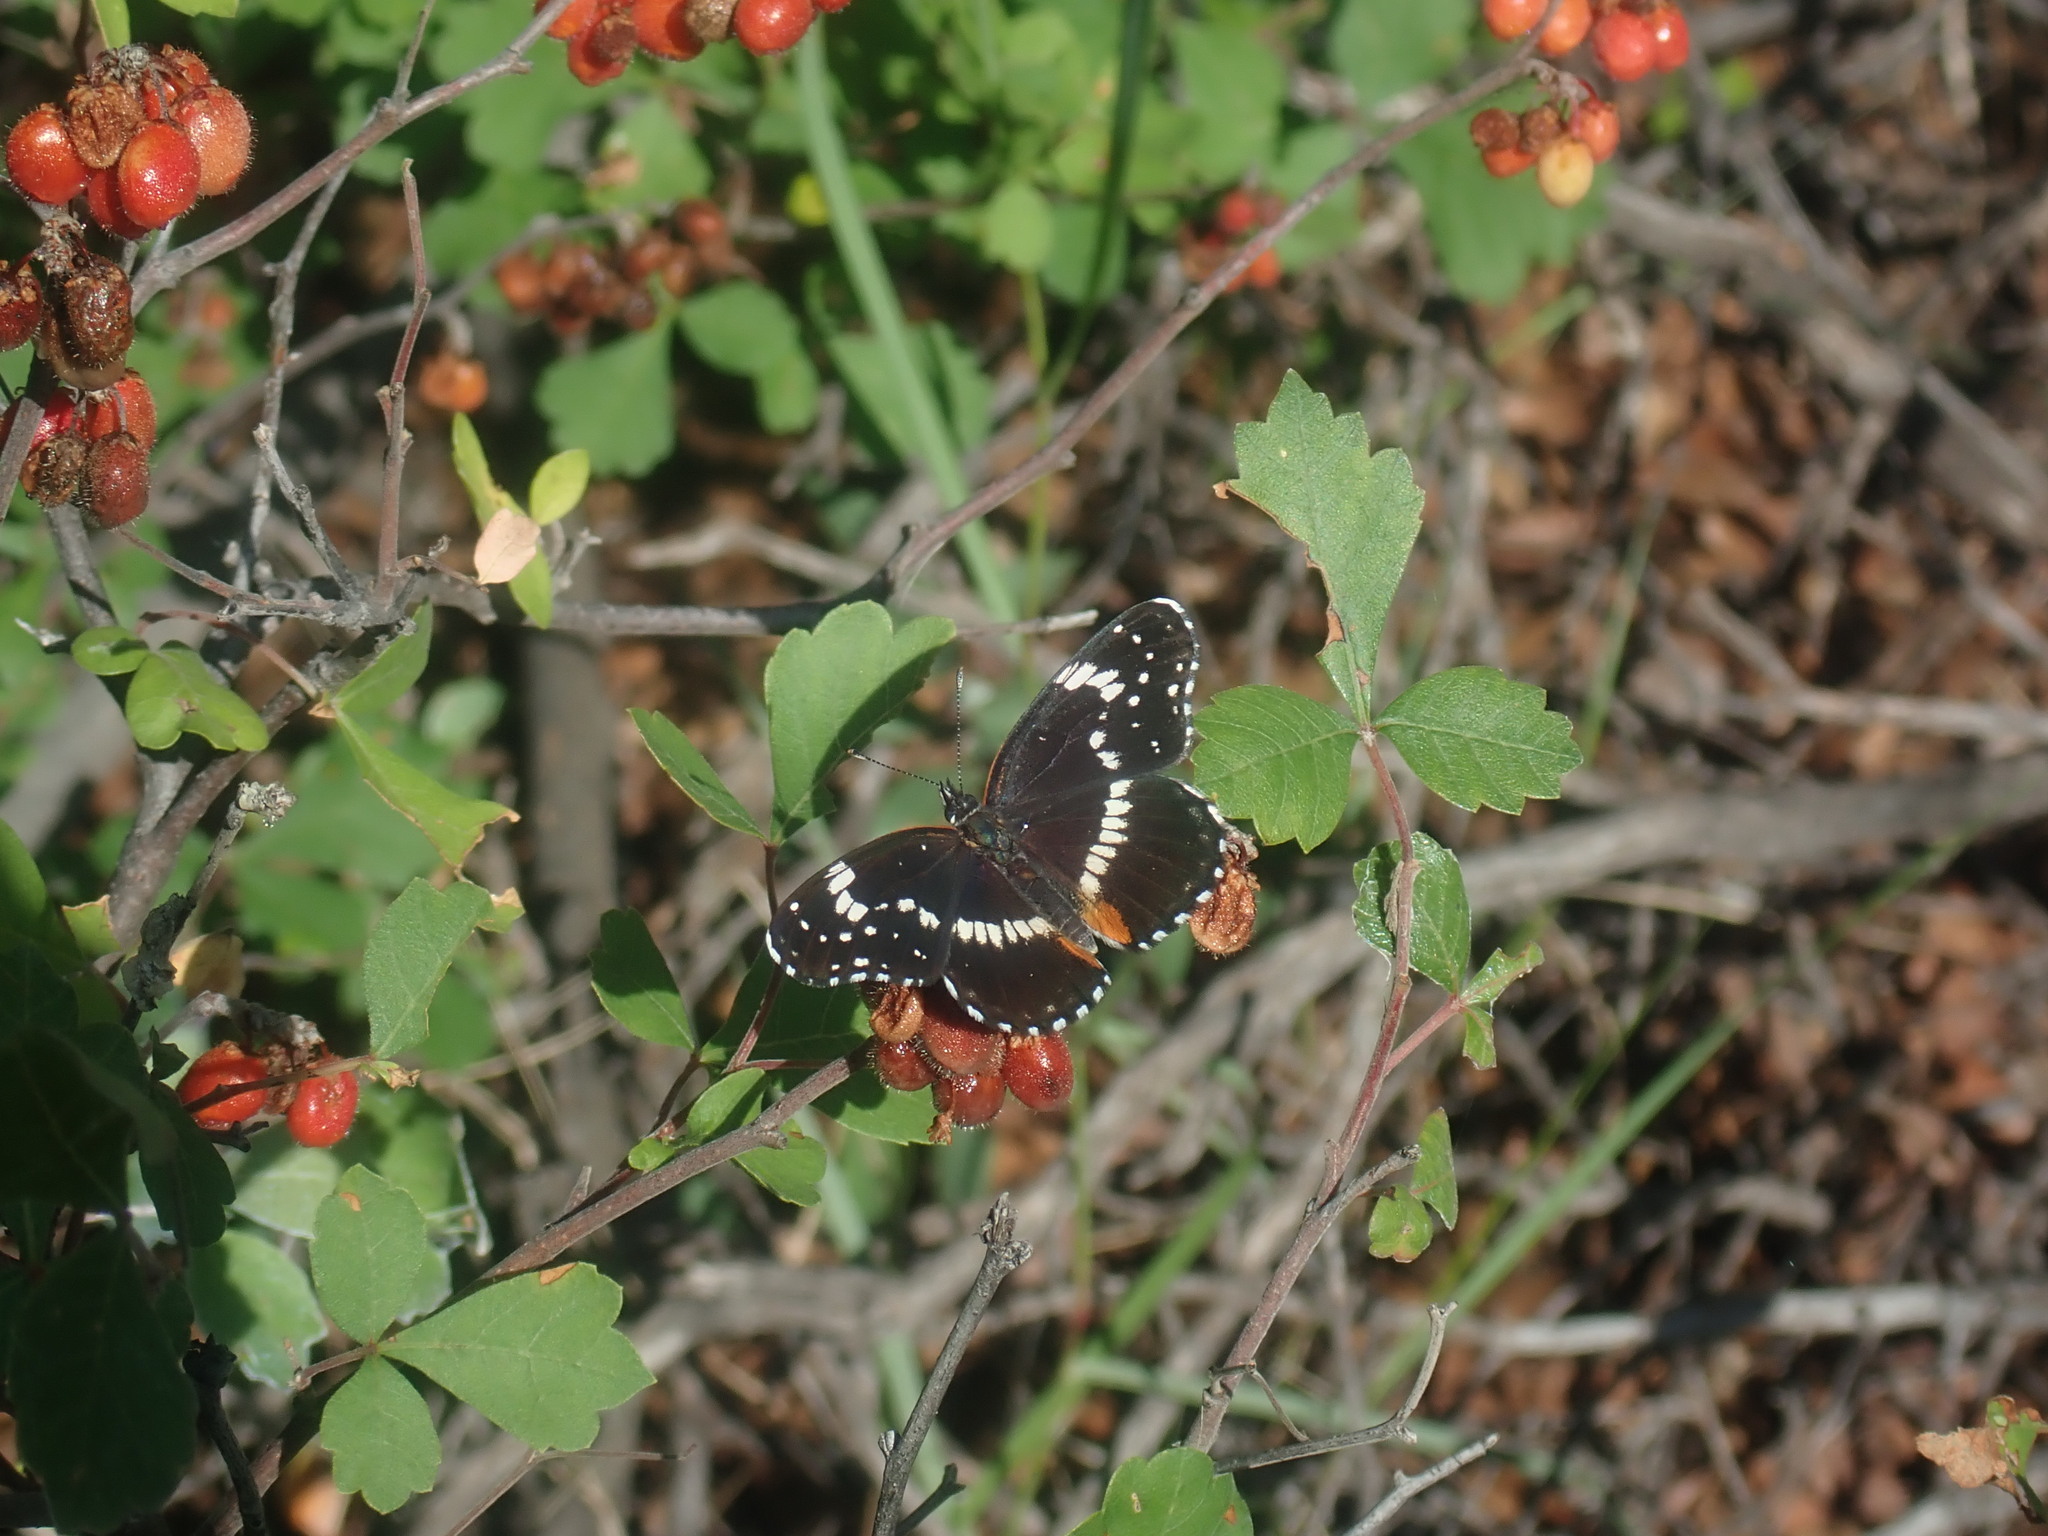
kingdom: Animalia
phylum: Arthropoda
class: Insecta
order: Lepidoptera
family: Nymphalidae
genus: Chlosyne
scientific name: Chlosyne lacinia
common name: Bordered patch
